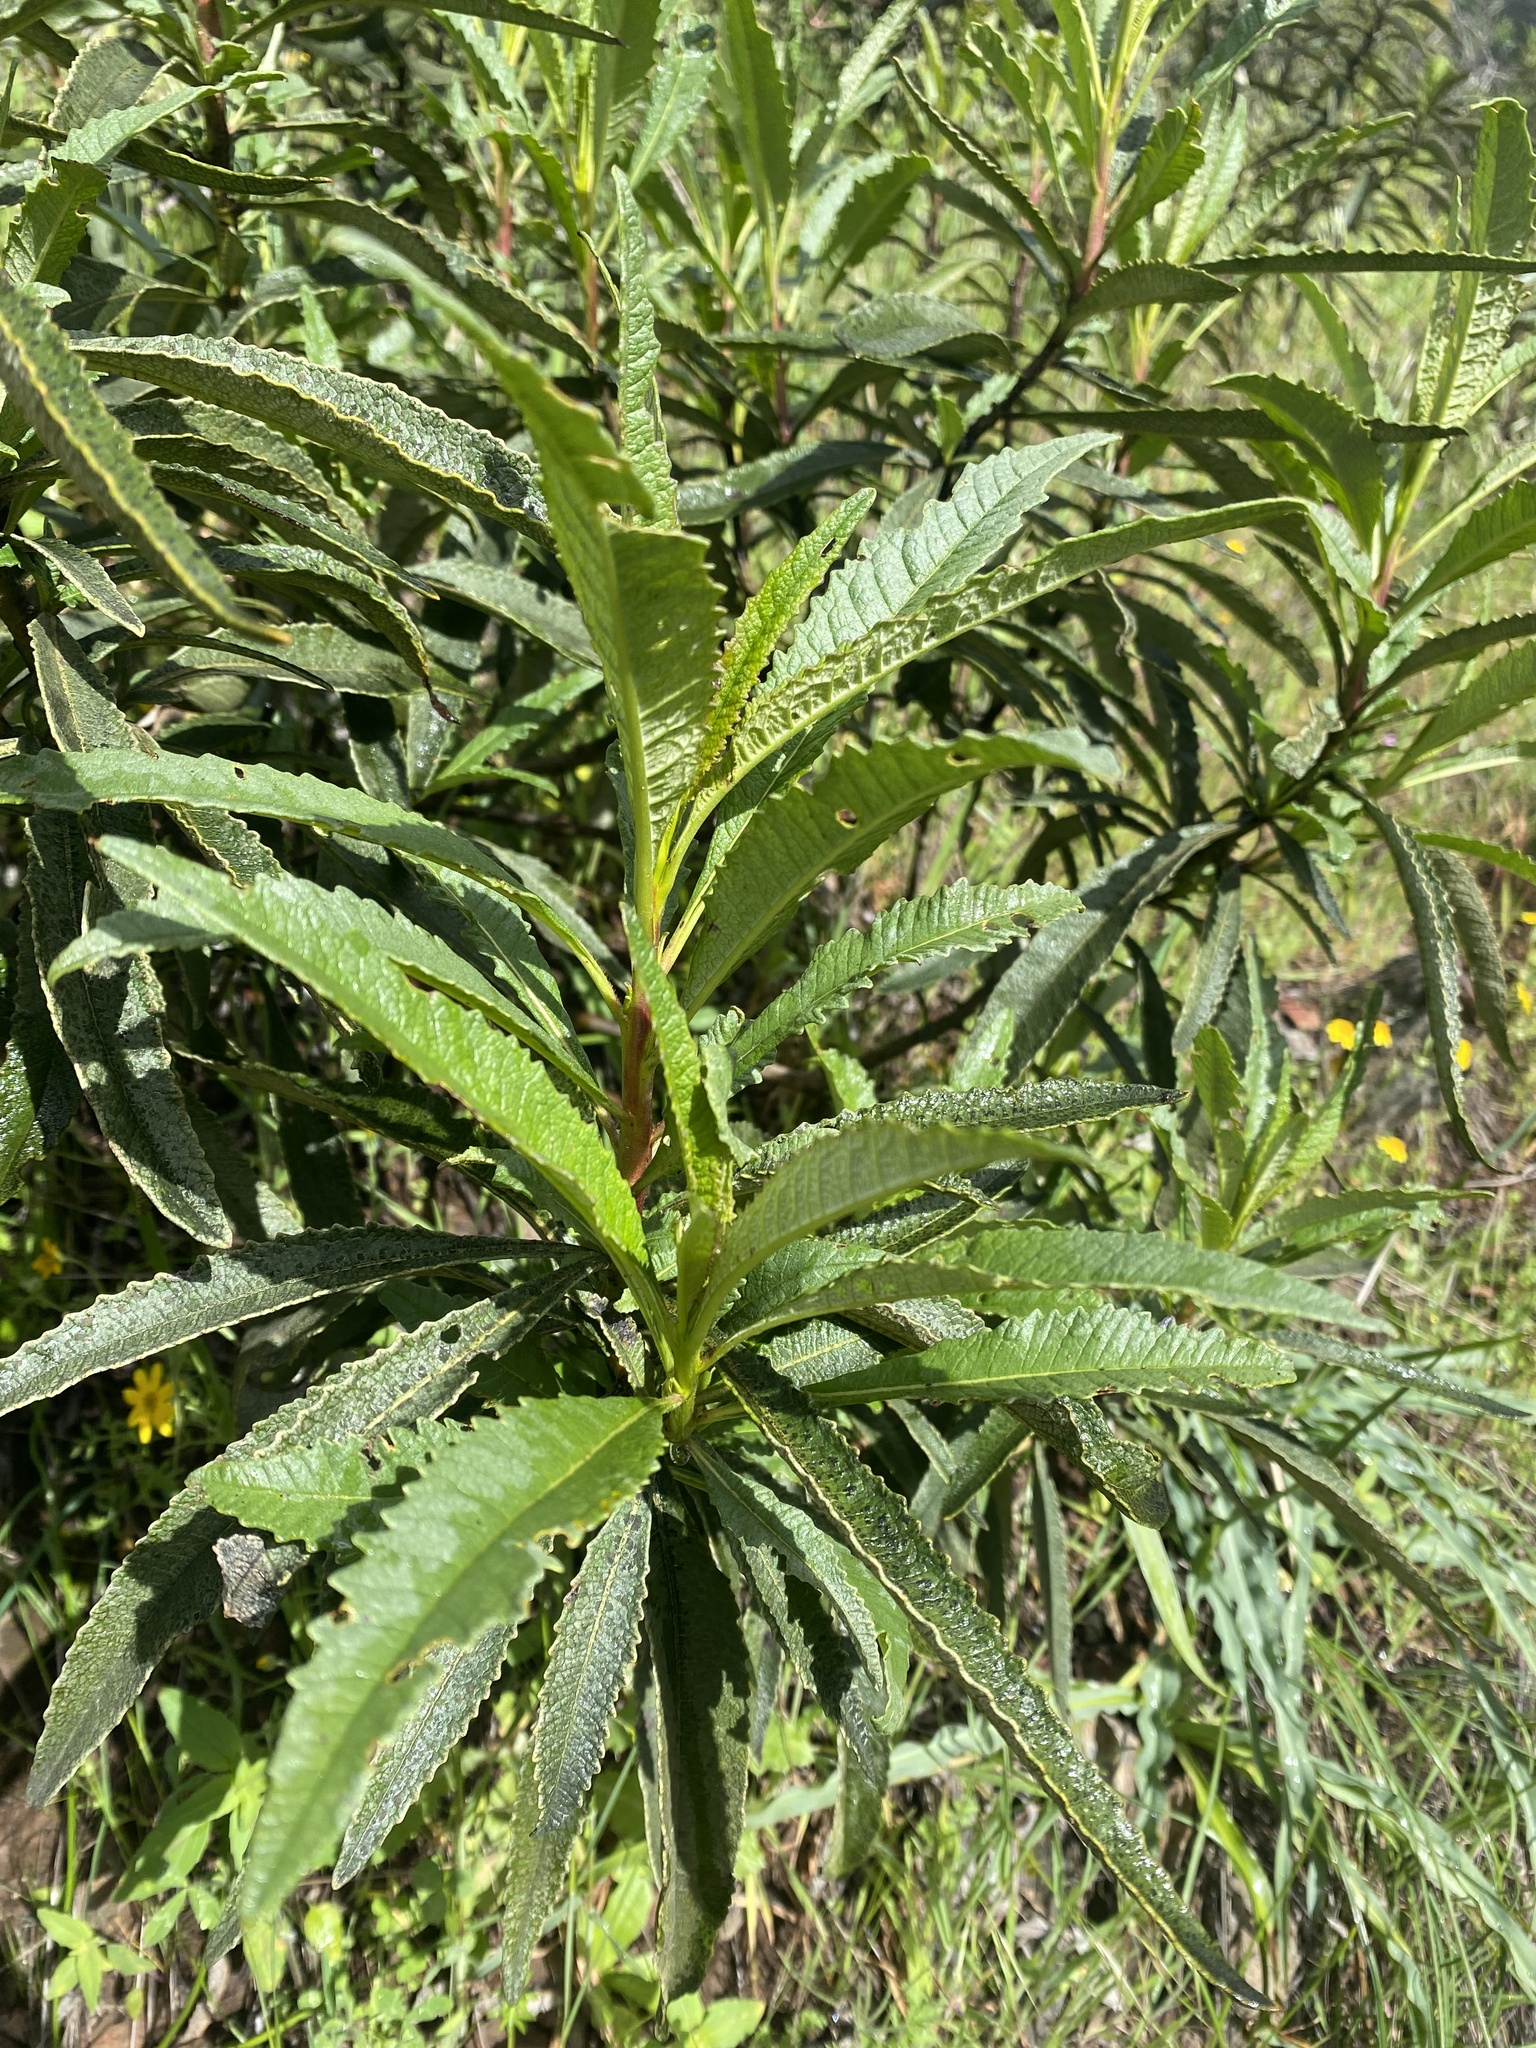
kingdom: Plantae
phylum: Tracheophyta
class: Magnoliopsida
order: Boraginales
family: Namaceae
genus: Eriodictyon
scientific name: Eriodictyon californicum
